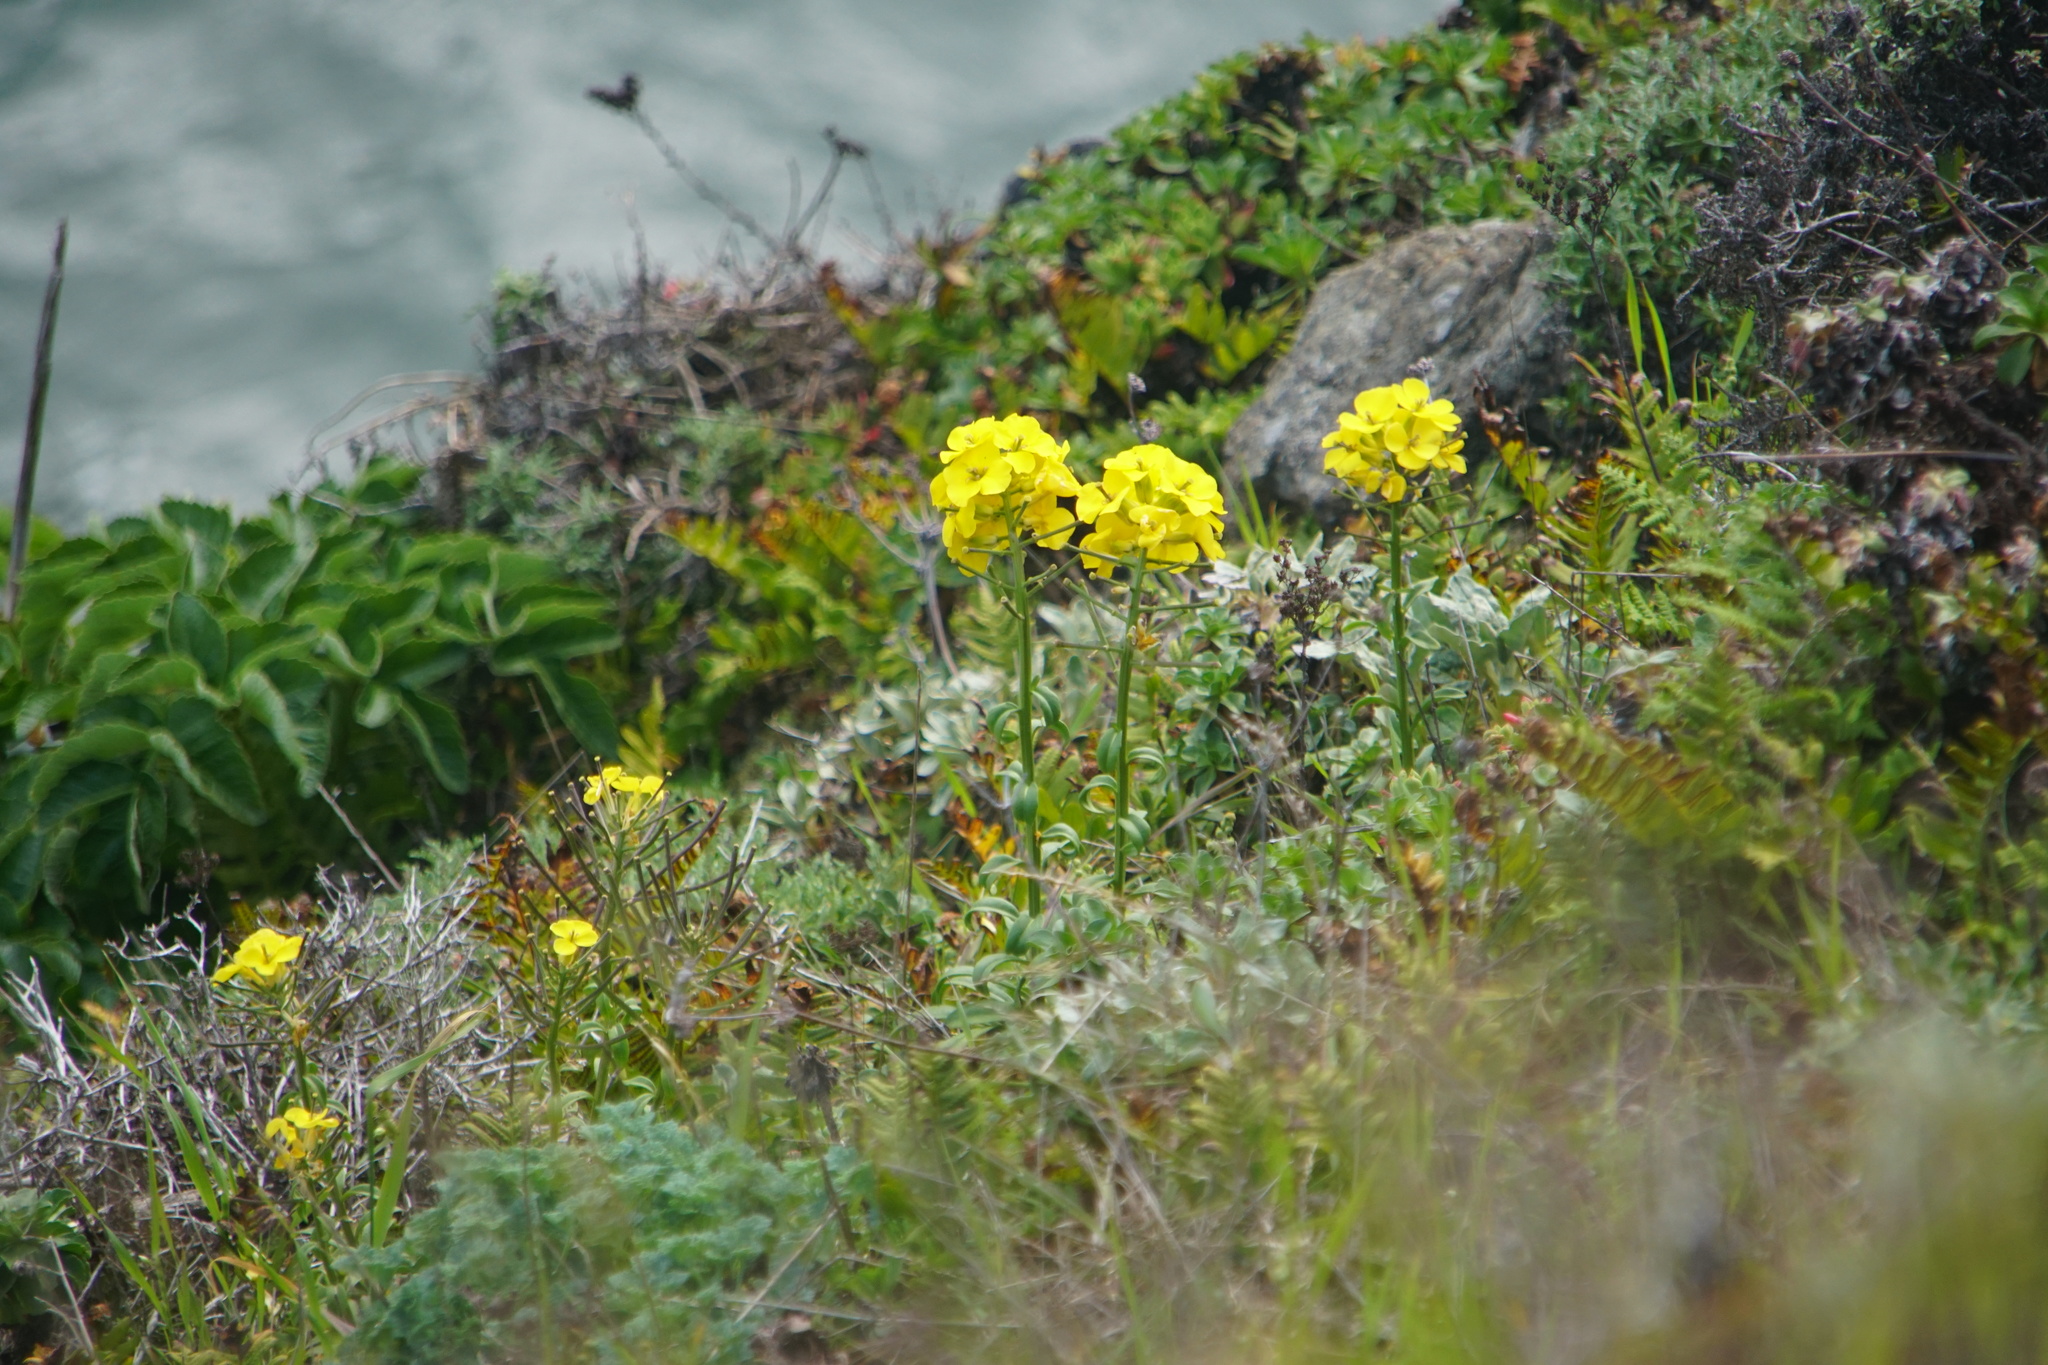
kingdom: Plantae
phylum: Tracheophyta
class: Magnoliopsida
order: Brassicales
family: Brassicaceae
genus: Erysimum
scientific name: Erysimum capitatum
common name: Western wallflower
